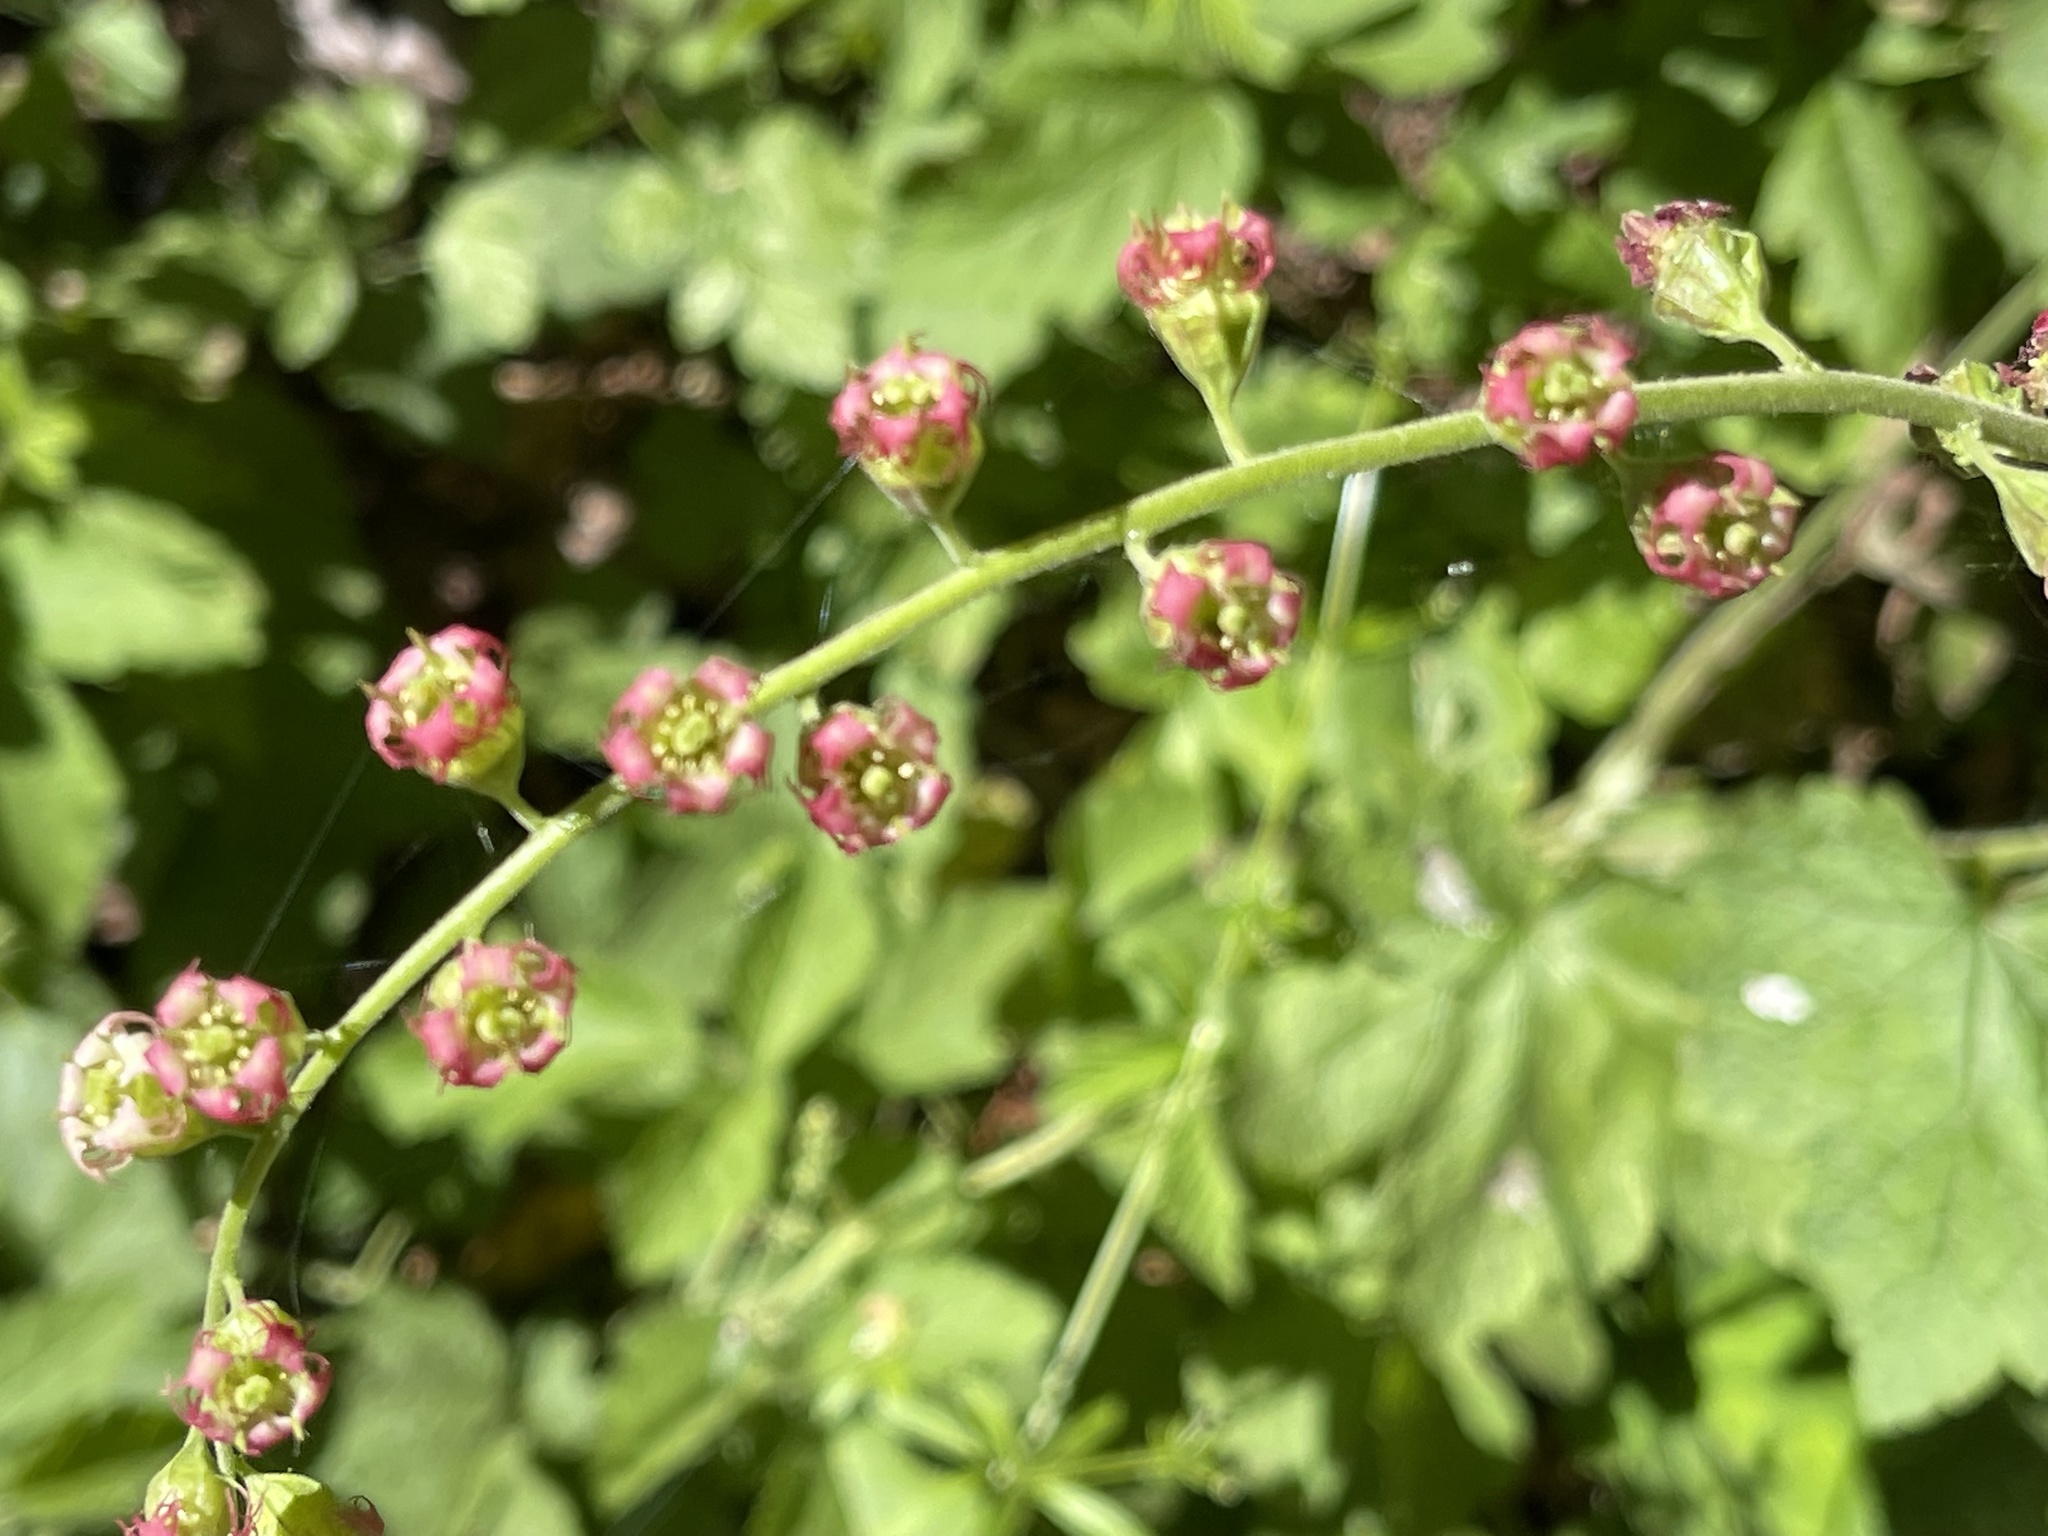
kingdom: Plantae
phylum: Tracheophyta
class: Magnoliopsida
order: Saxifragales
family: Saxifragaceae
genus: Tellima
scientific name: Tellima grandiflora
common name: Fringecups
